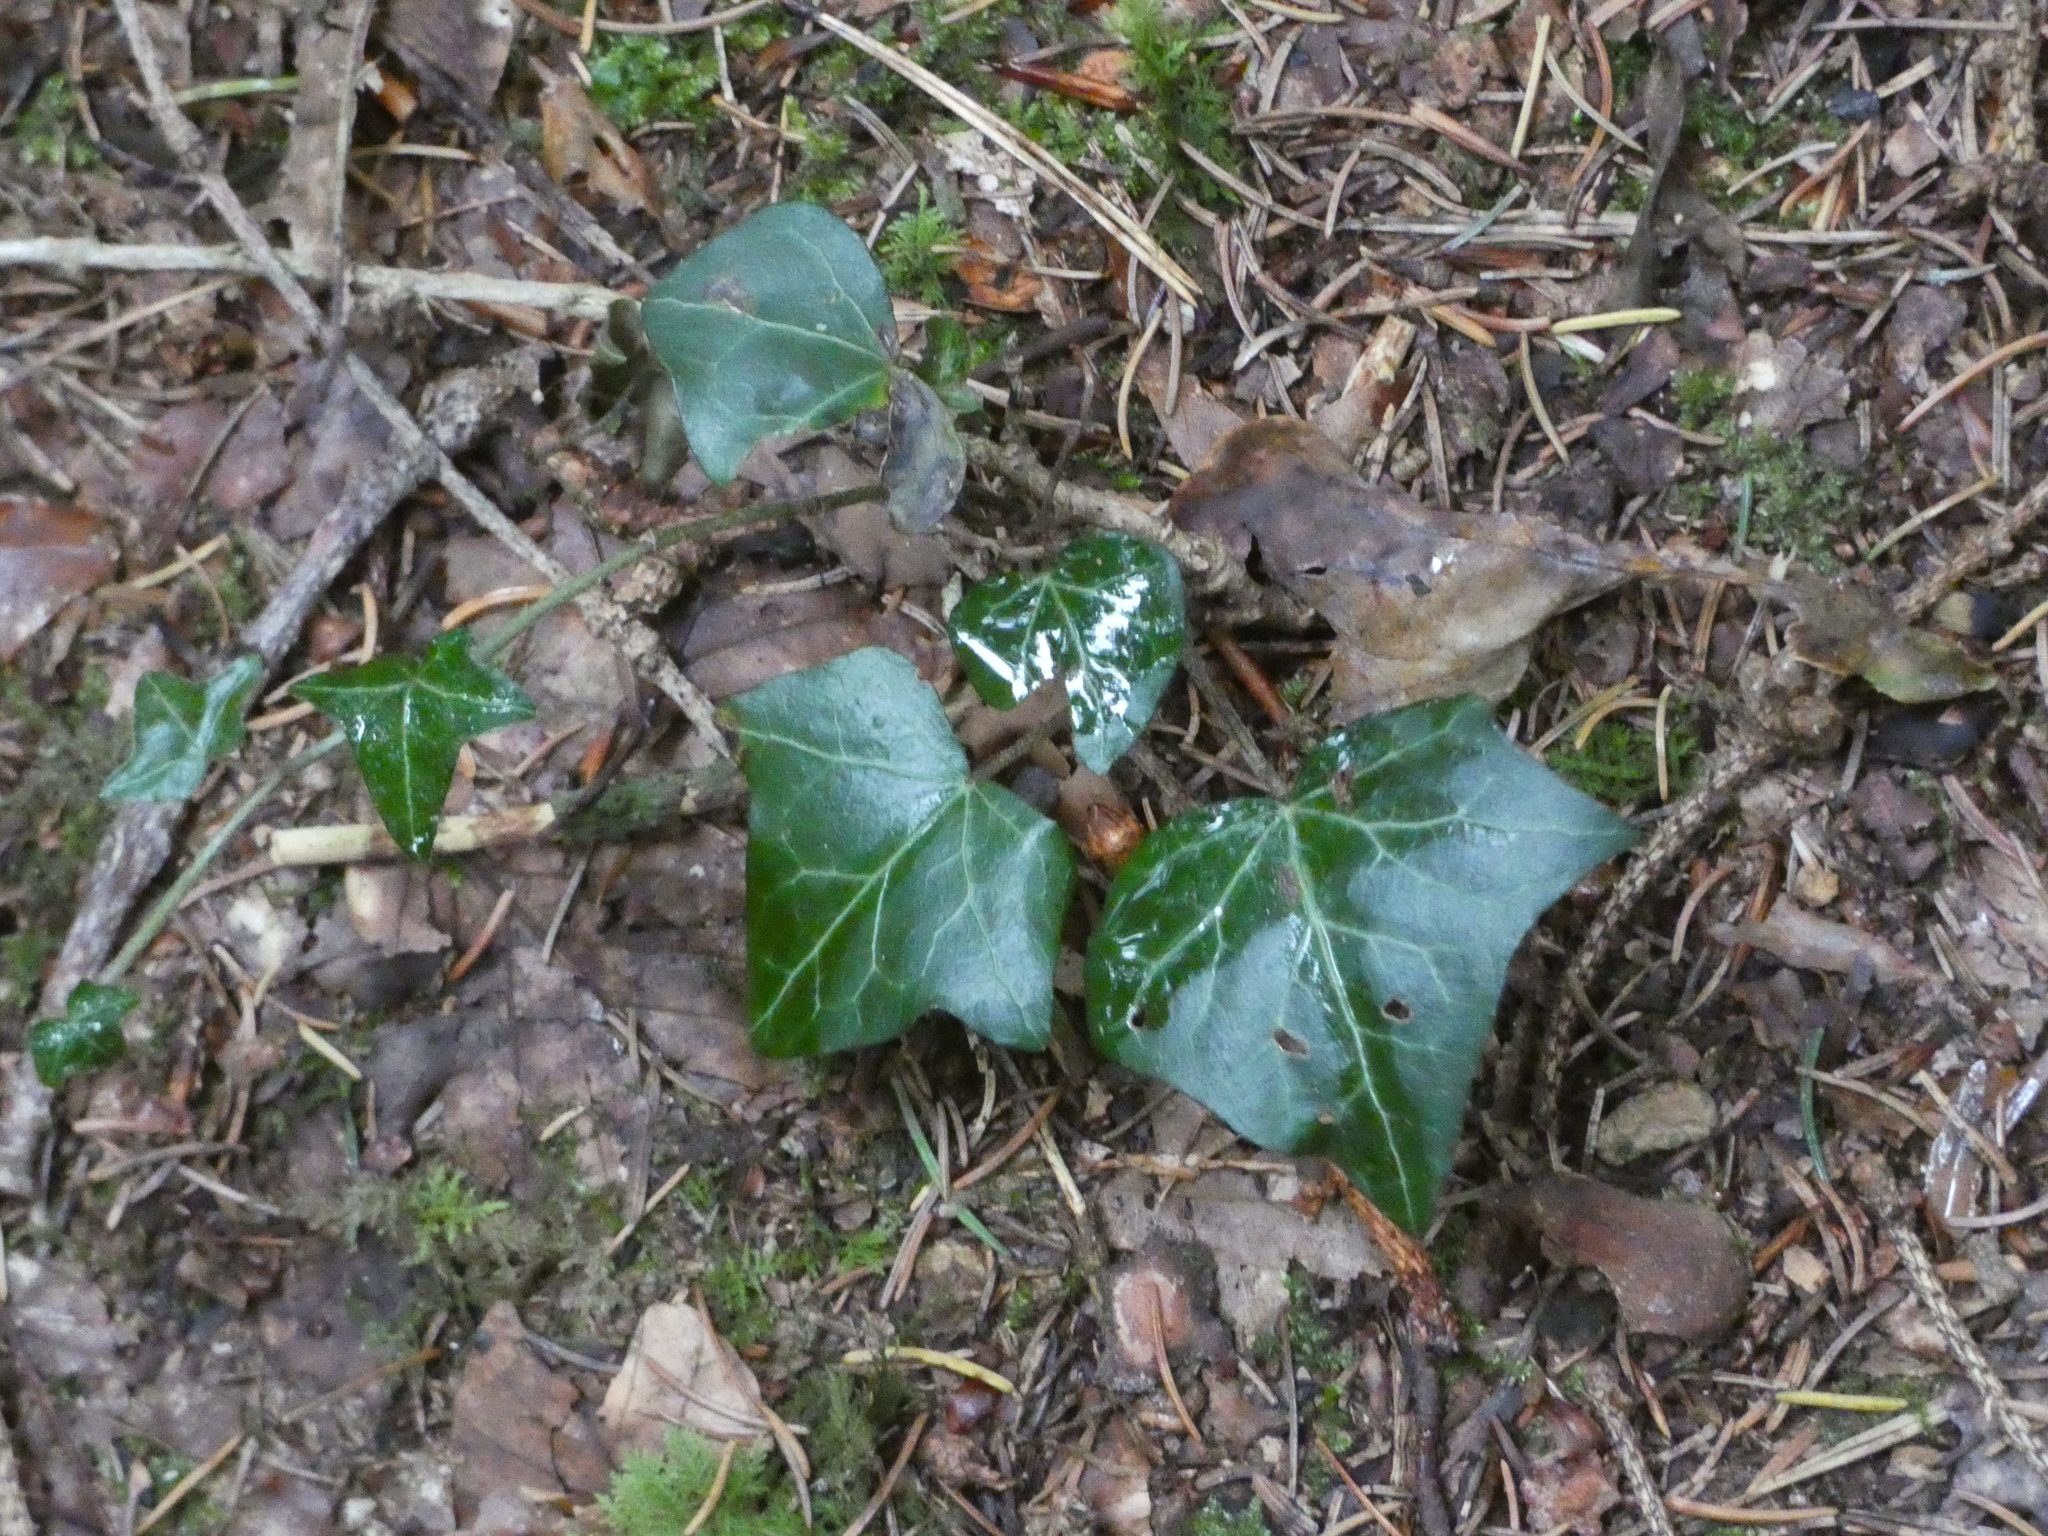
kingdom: Plantae
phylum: Tracheophyta
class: Magnoliopsida
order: Apiales
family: Araliaceae
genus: Hedera
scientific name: Hedera helix
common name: Ivy
